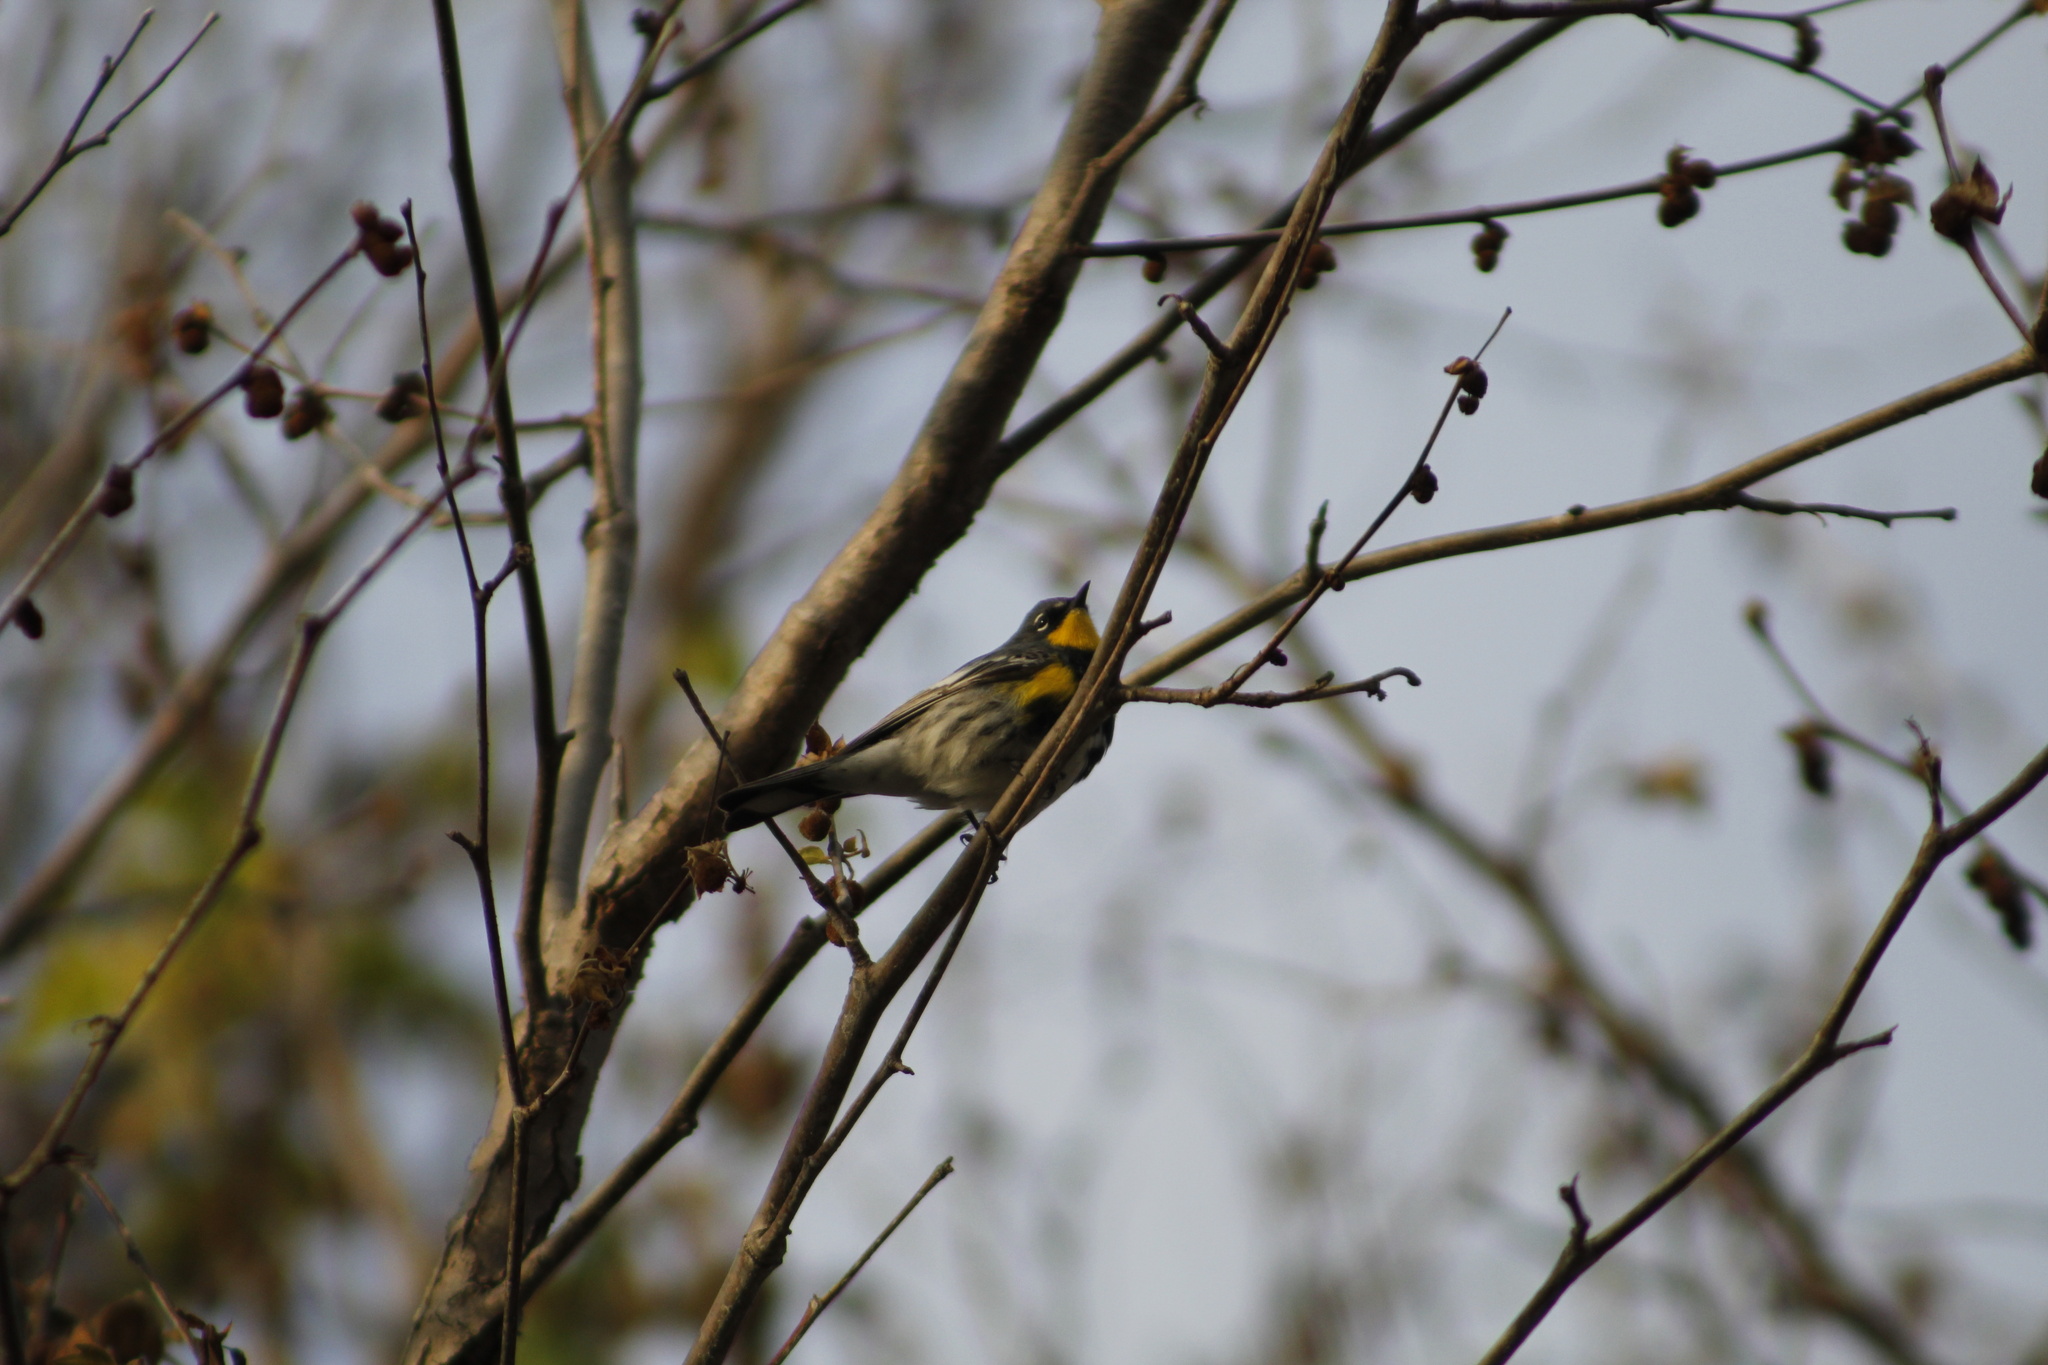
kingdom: Animalia
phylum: Chordata
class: Aves
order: Passeriformes
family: Parulidae
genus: Setophaga
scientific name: Setophaga coronata
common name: Myrtle warbler
